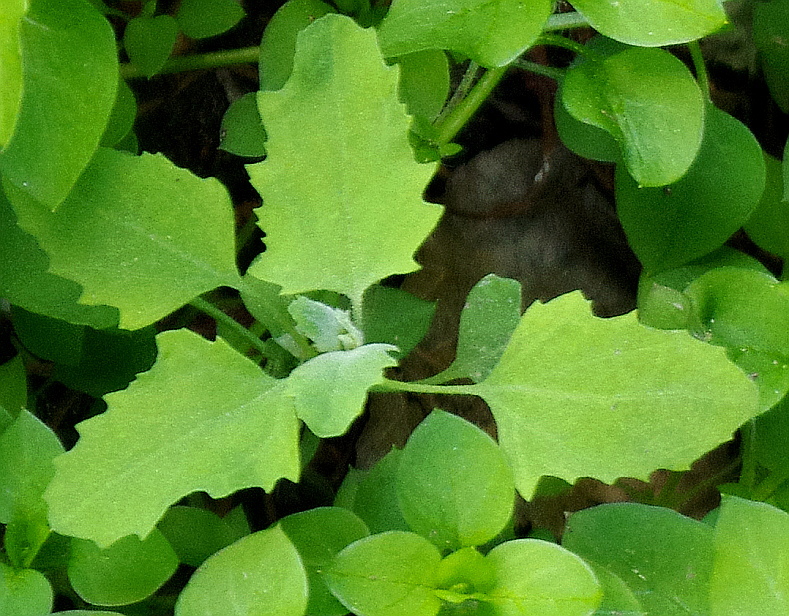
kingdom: Plantae
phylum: Tracheophyta
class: Magnoliopsida
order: Caryophyllales
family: Amaranthaceae
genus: Chenopodium
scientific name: Chenopodium album
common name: Fat-hen
